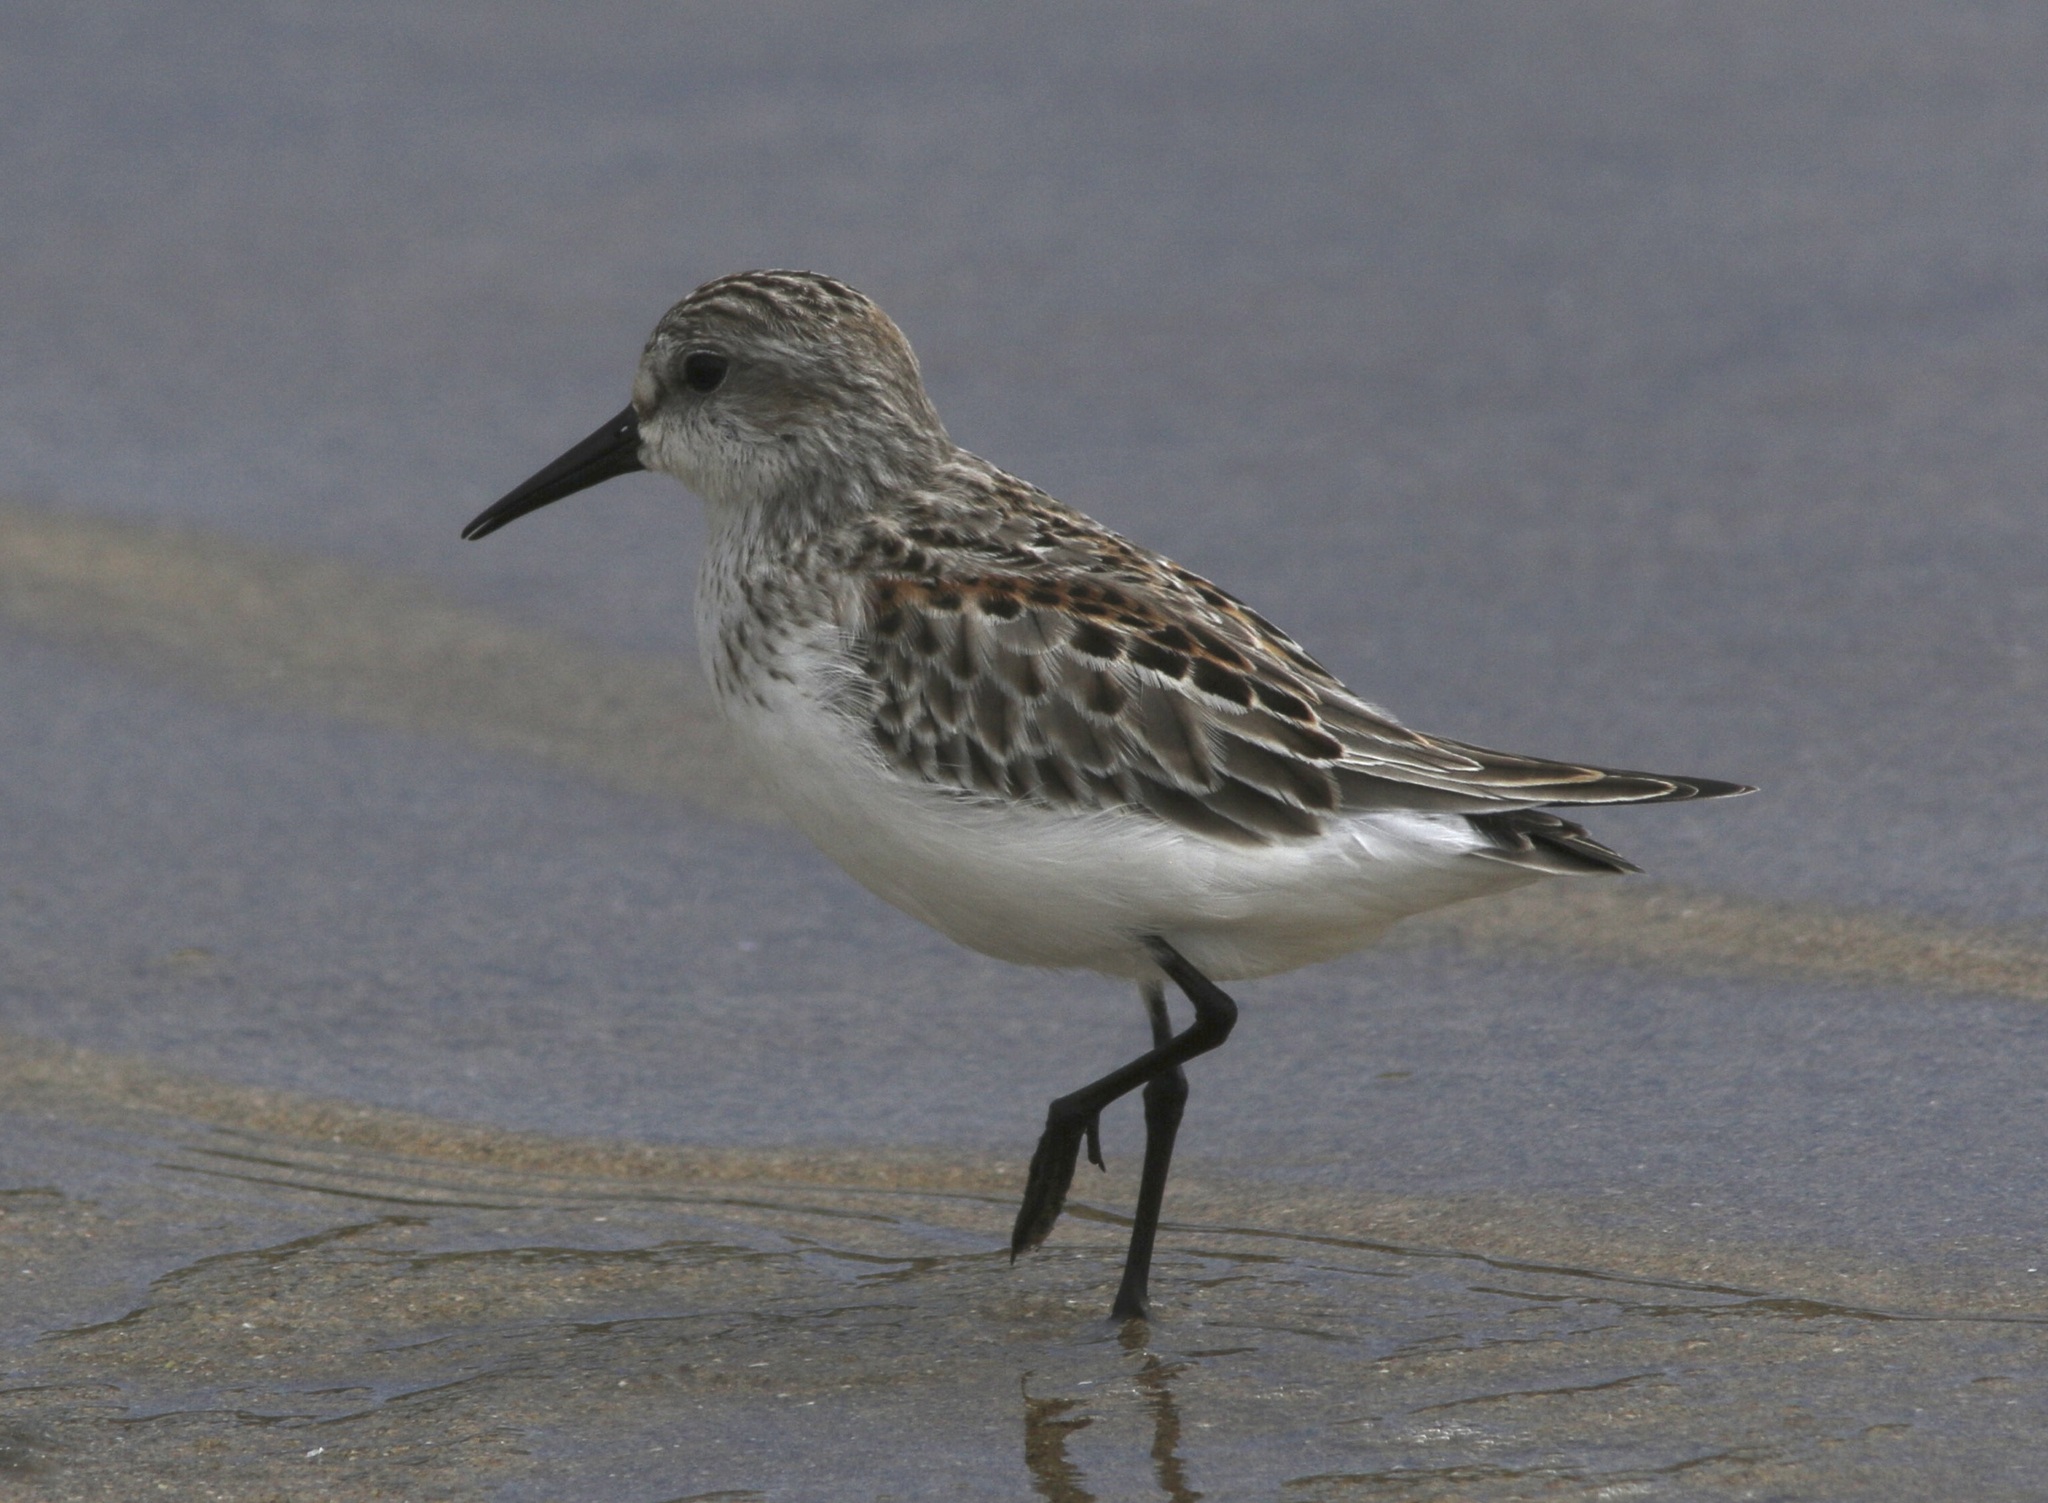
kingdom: Animalia
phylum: Chordata
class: Aves
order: Charadriiformes
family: Scolopacidae
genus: Calidris
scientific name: Calidris mauri
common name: Western sandpiper
